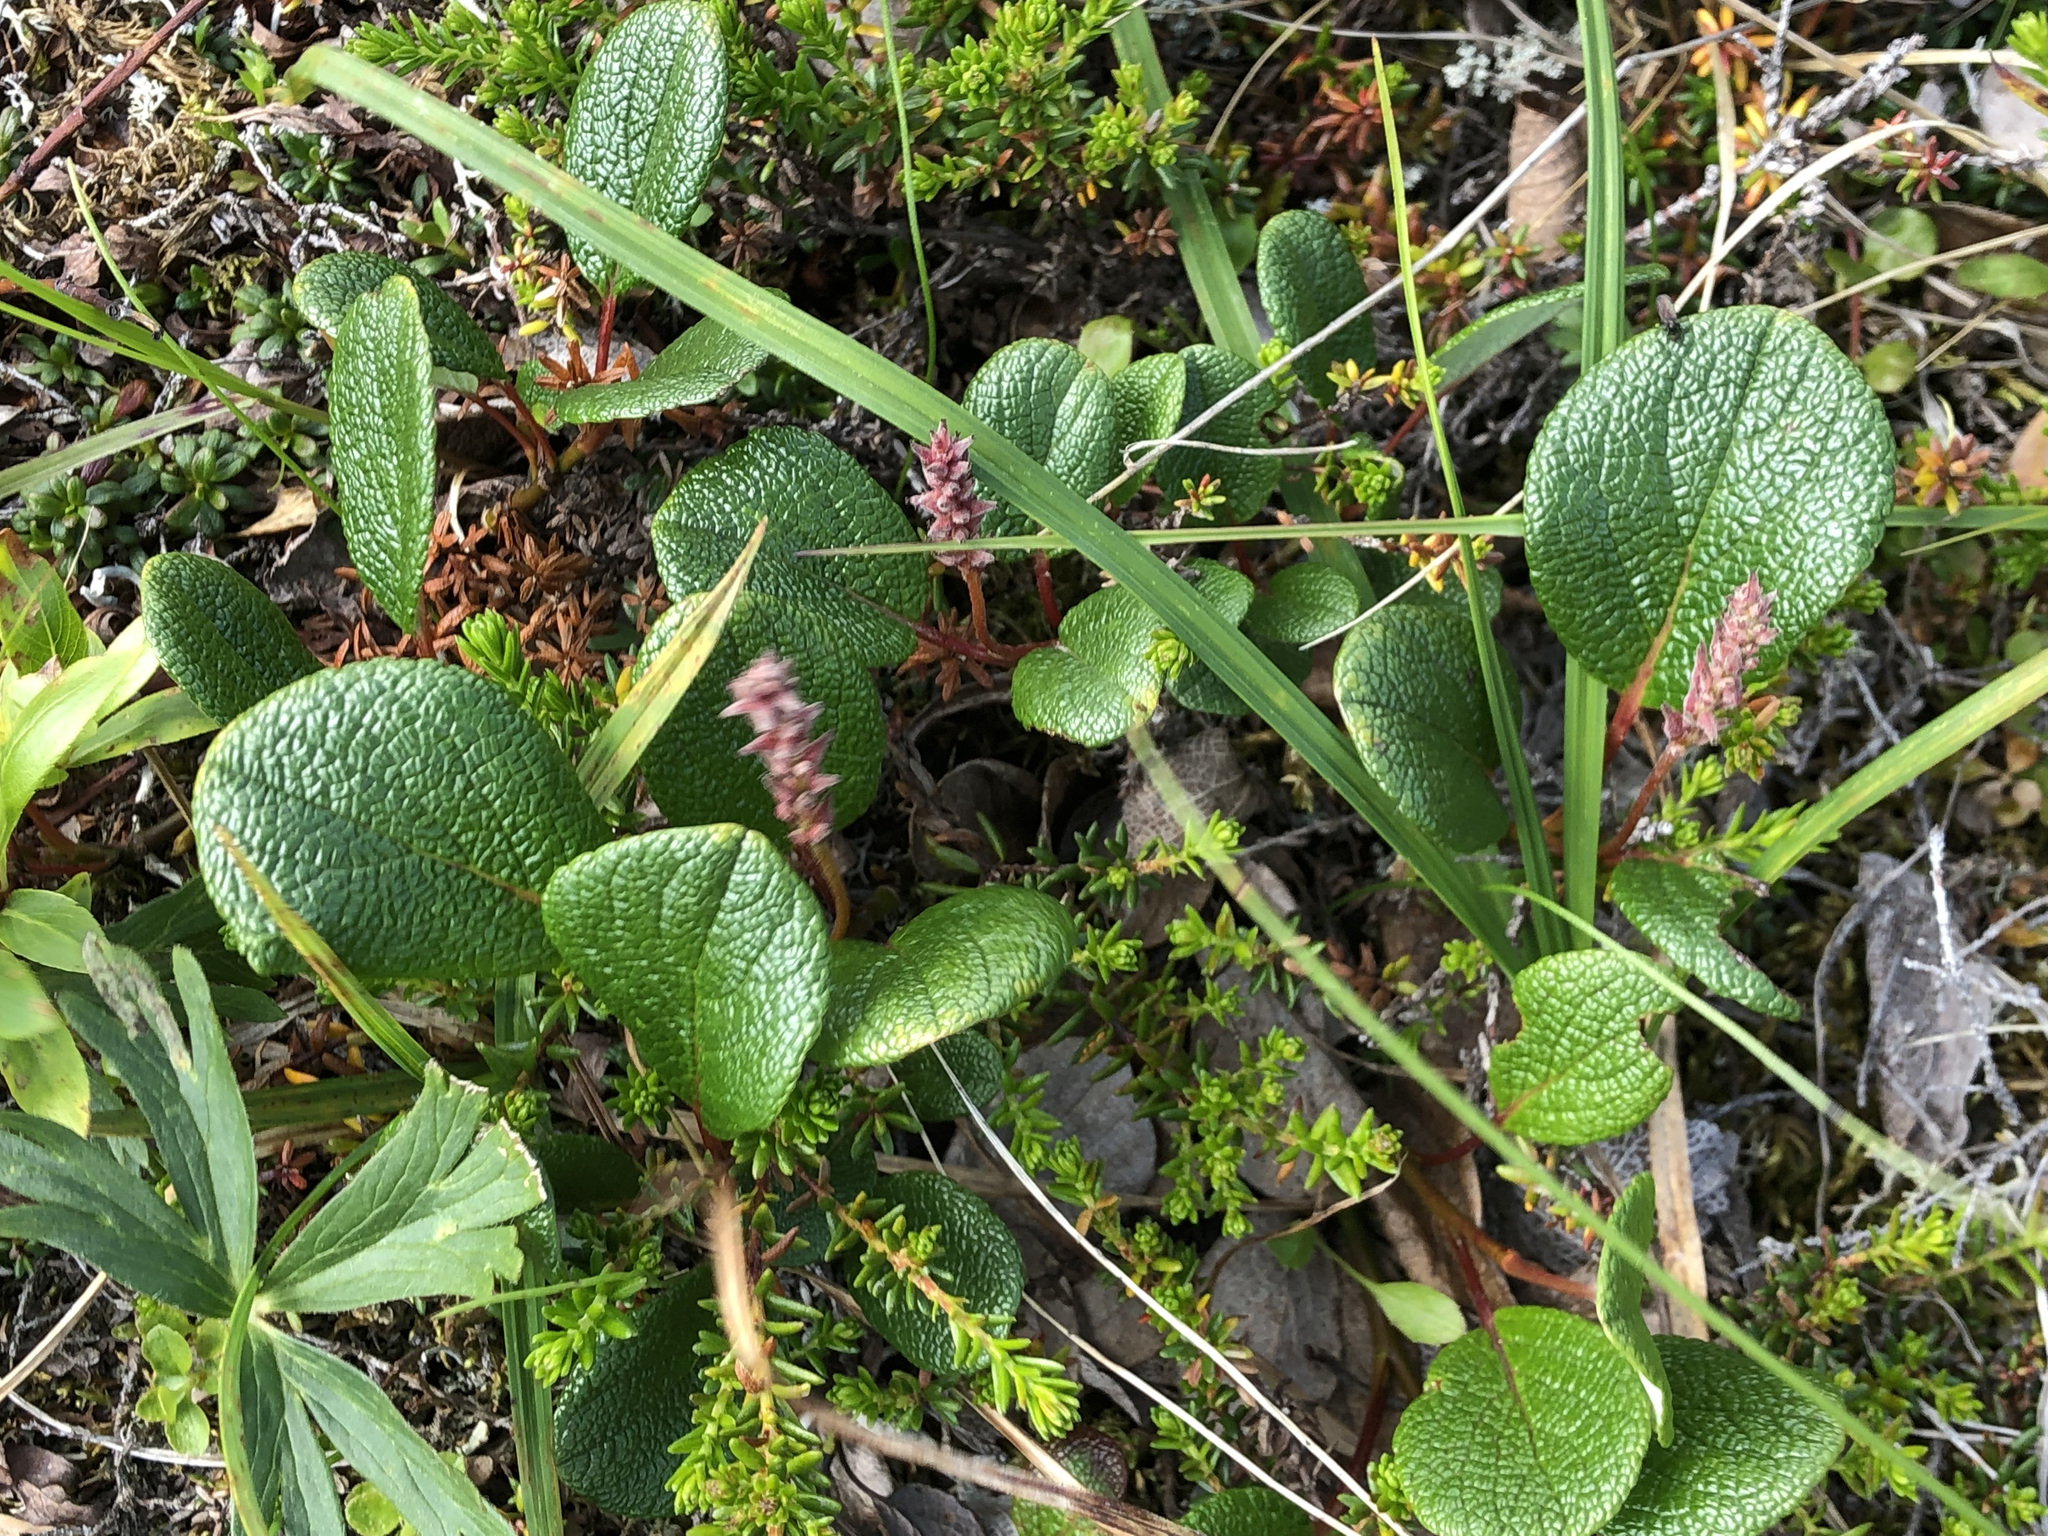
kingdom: Plantae
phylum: Tracheophyta
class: Magnoliopsida
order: Malpighiales
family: Salicaceae
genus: Salix
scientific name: Salix reticulata
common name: Net-leaved willow
